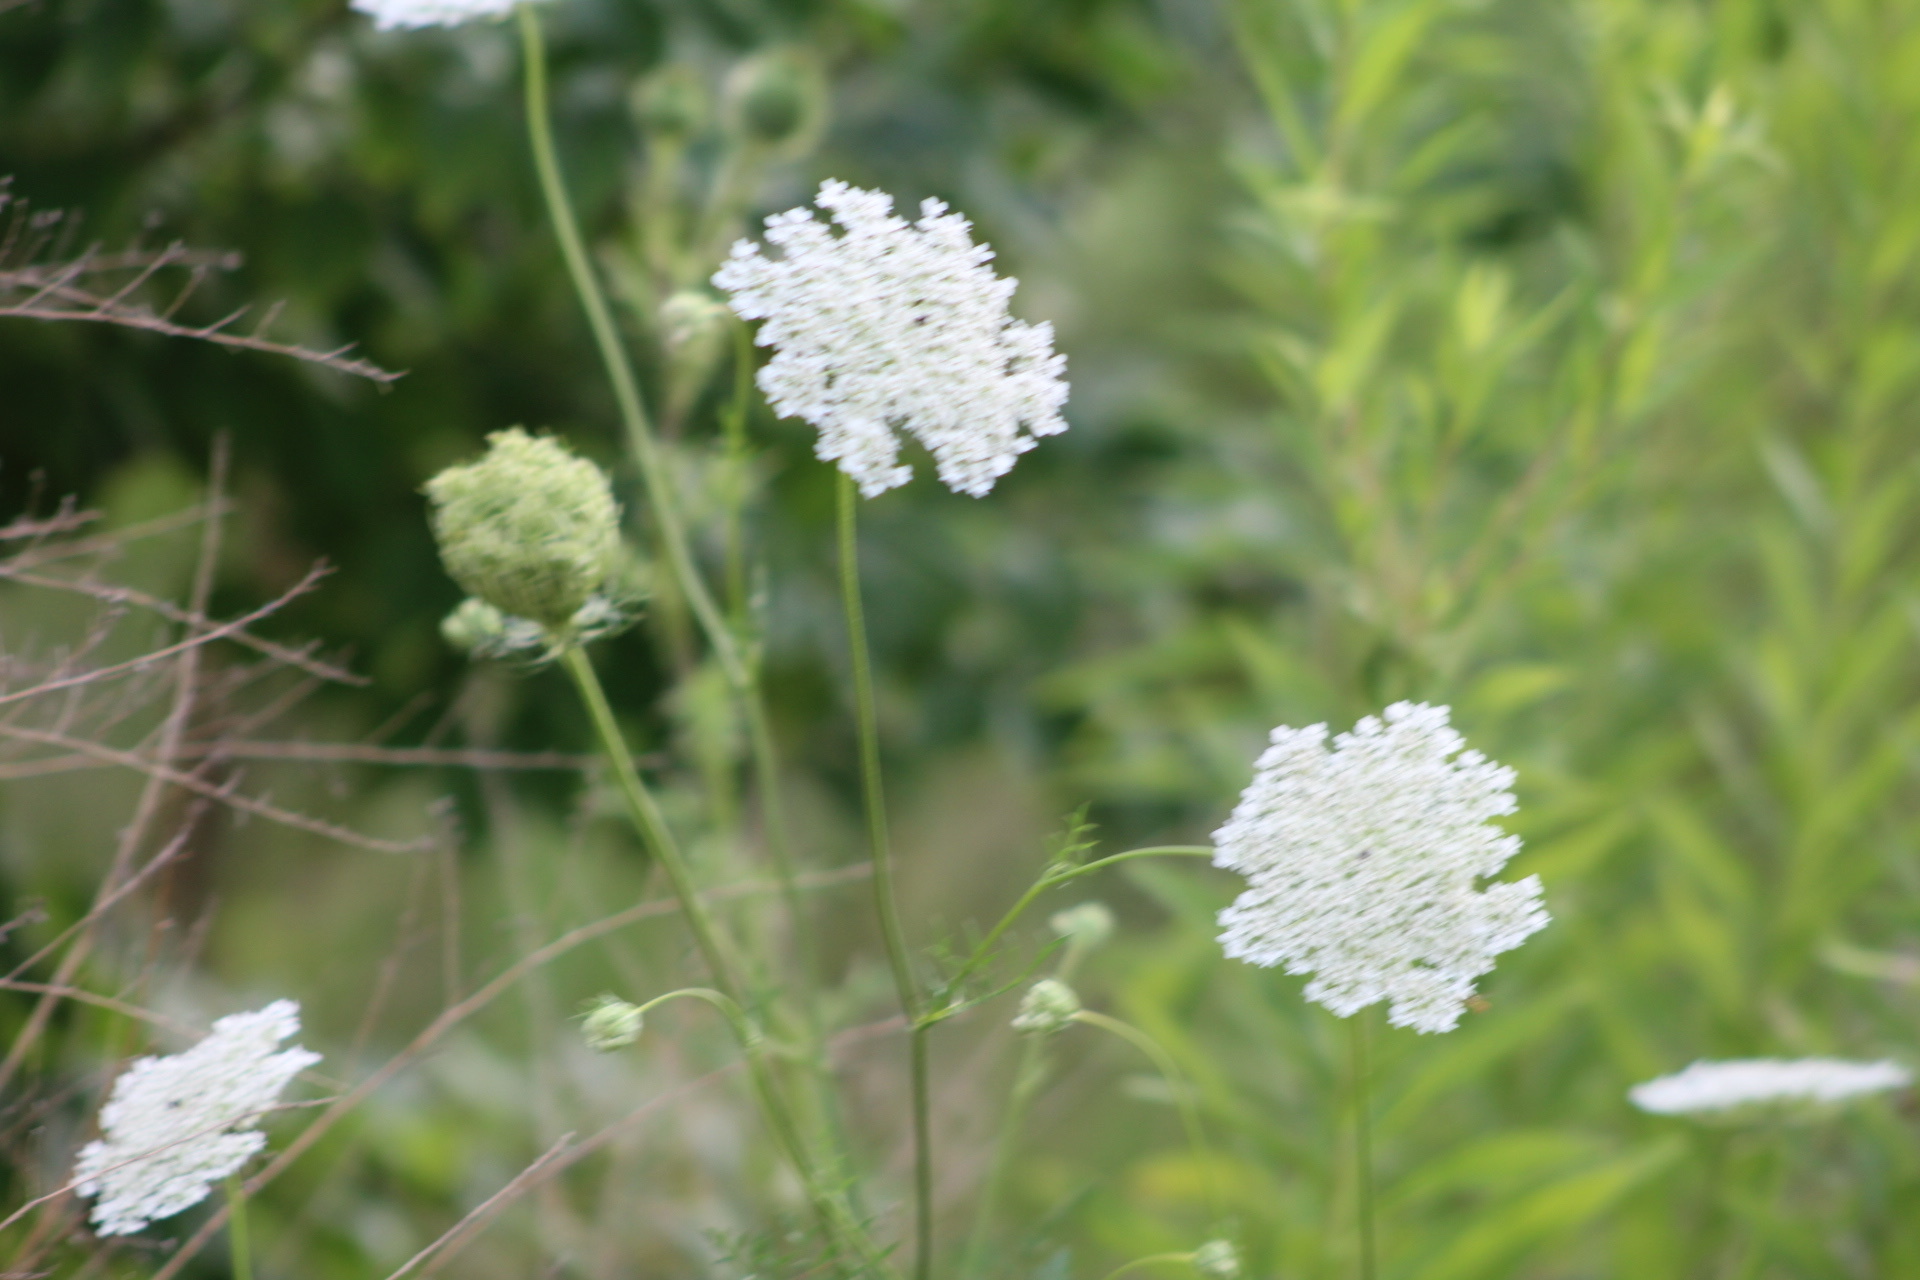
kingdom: Plantae
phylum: Tracheophyta
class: Magnoliopsida
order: Apiales
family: Apiaceae
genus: Daucus
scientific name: Daucus carota
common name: Wild carrot
